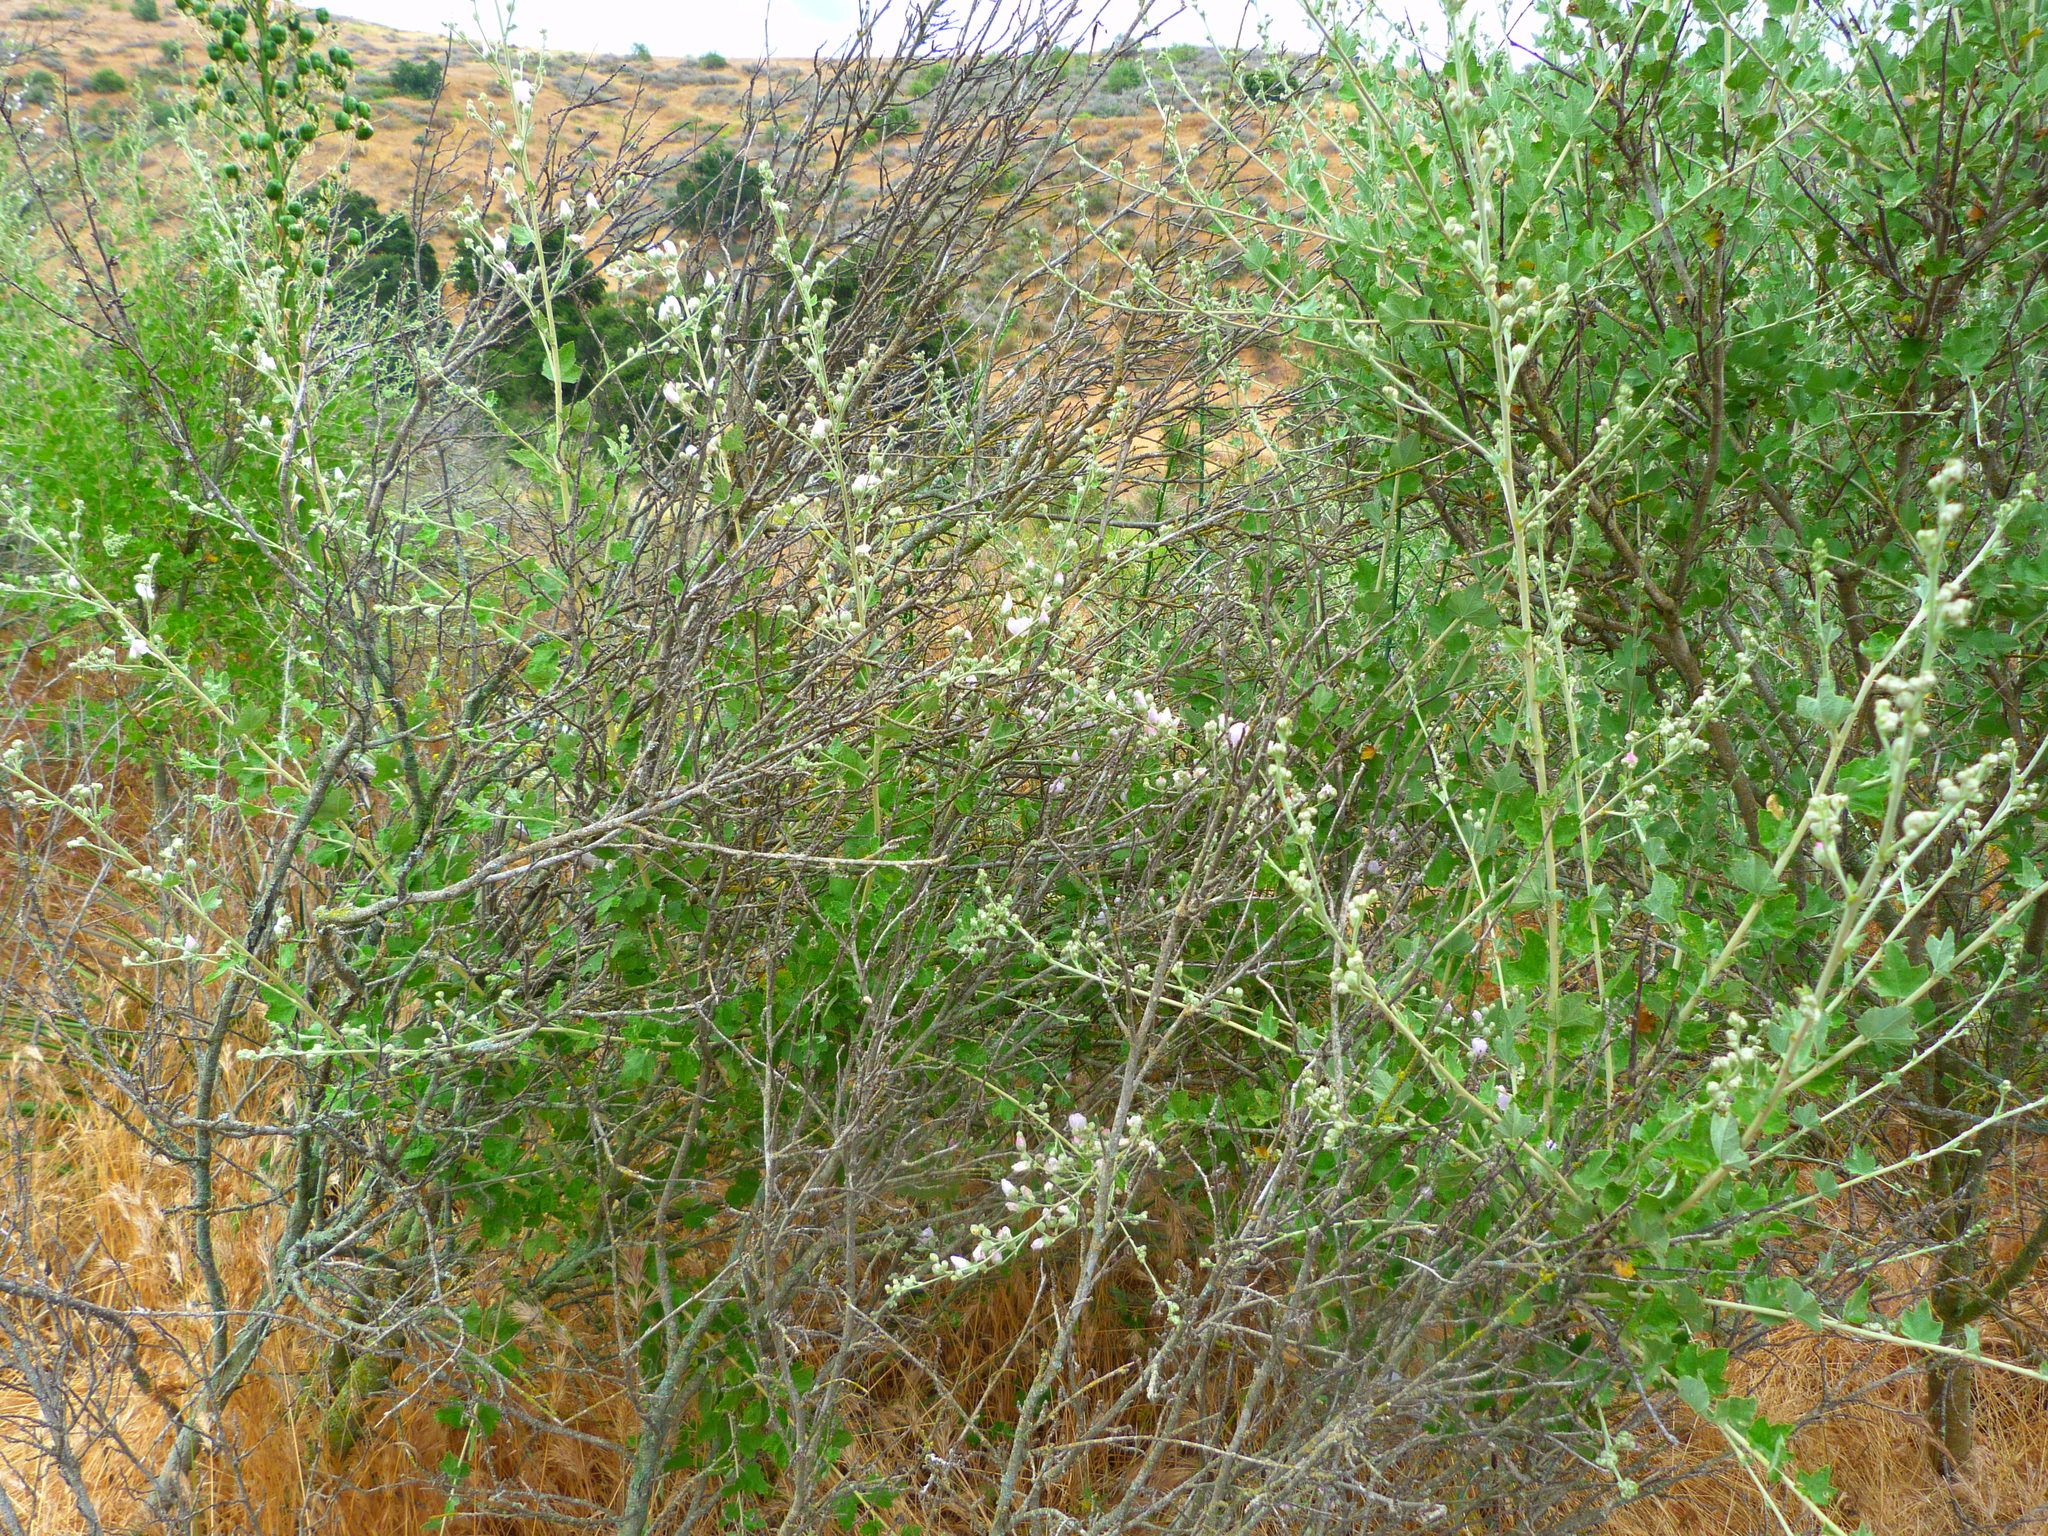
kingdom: Plantae
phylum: Tracheophyta
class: Magnoliopsida
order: Malvales
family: Malvaceae
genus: Malacothamnus
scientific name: Malacothamnus fasciculatus
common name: Sant cruz island bush-mallow
